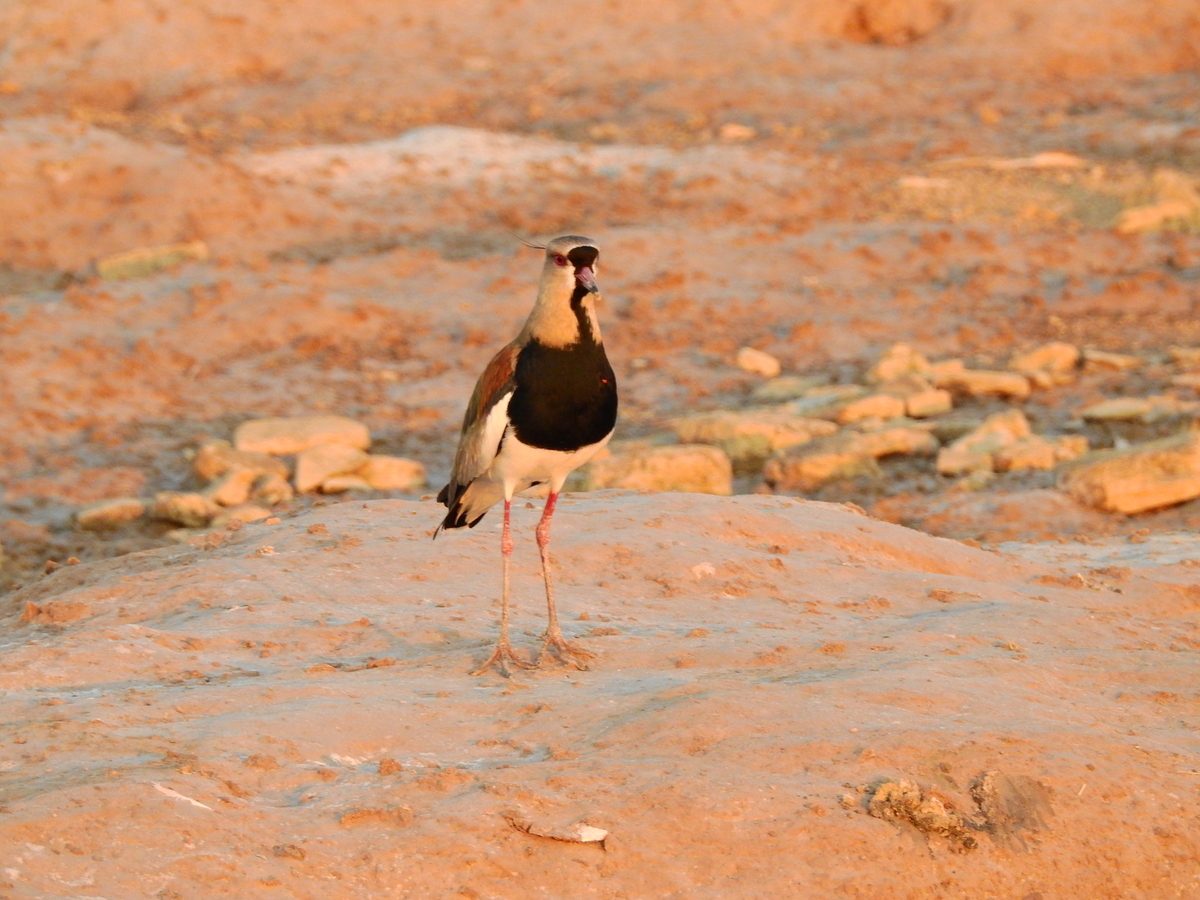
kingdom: Animalia
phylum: Chordata
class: Aves
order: Charadriiformes
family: Charadriidae
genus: Vanellus
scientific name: Vanellus chilensis
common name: Southern lapwing
